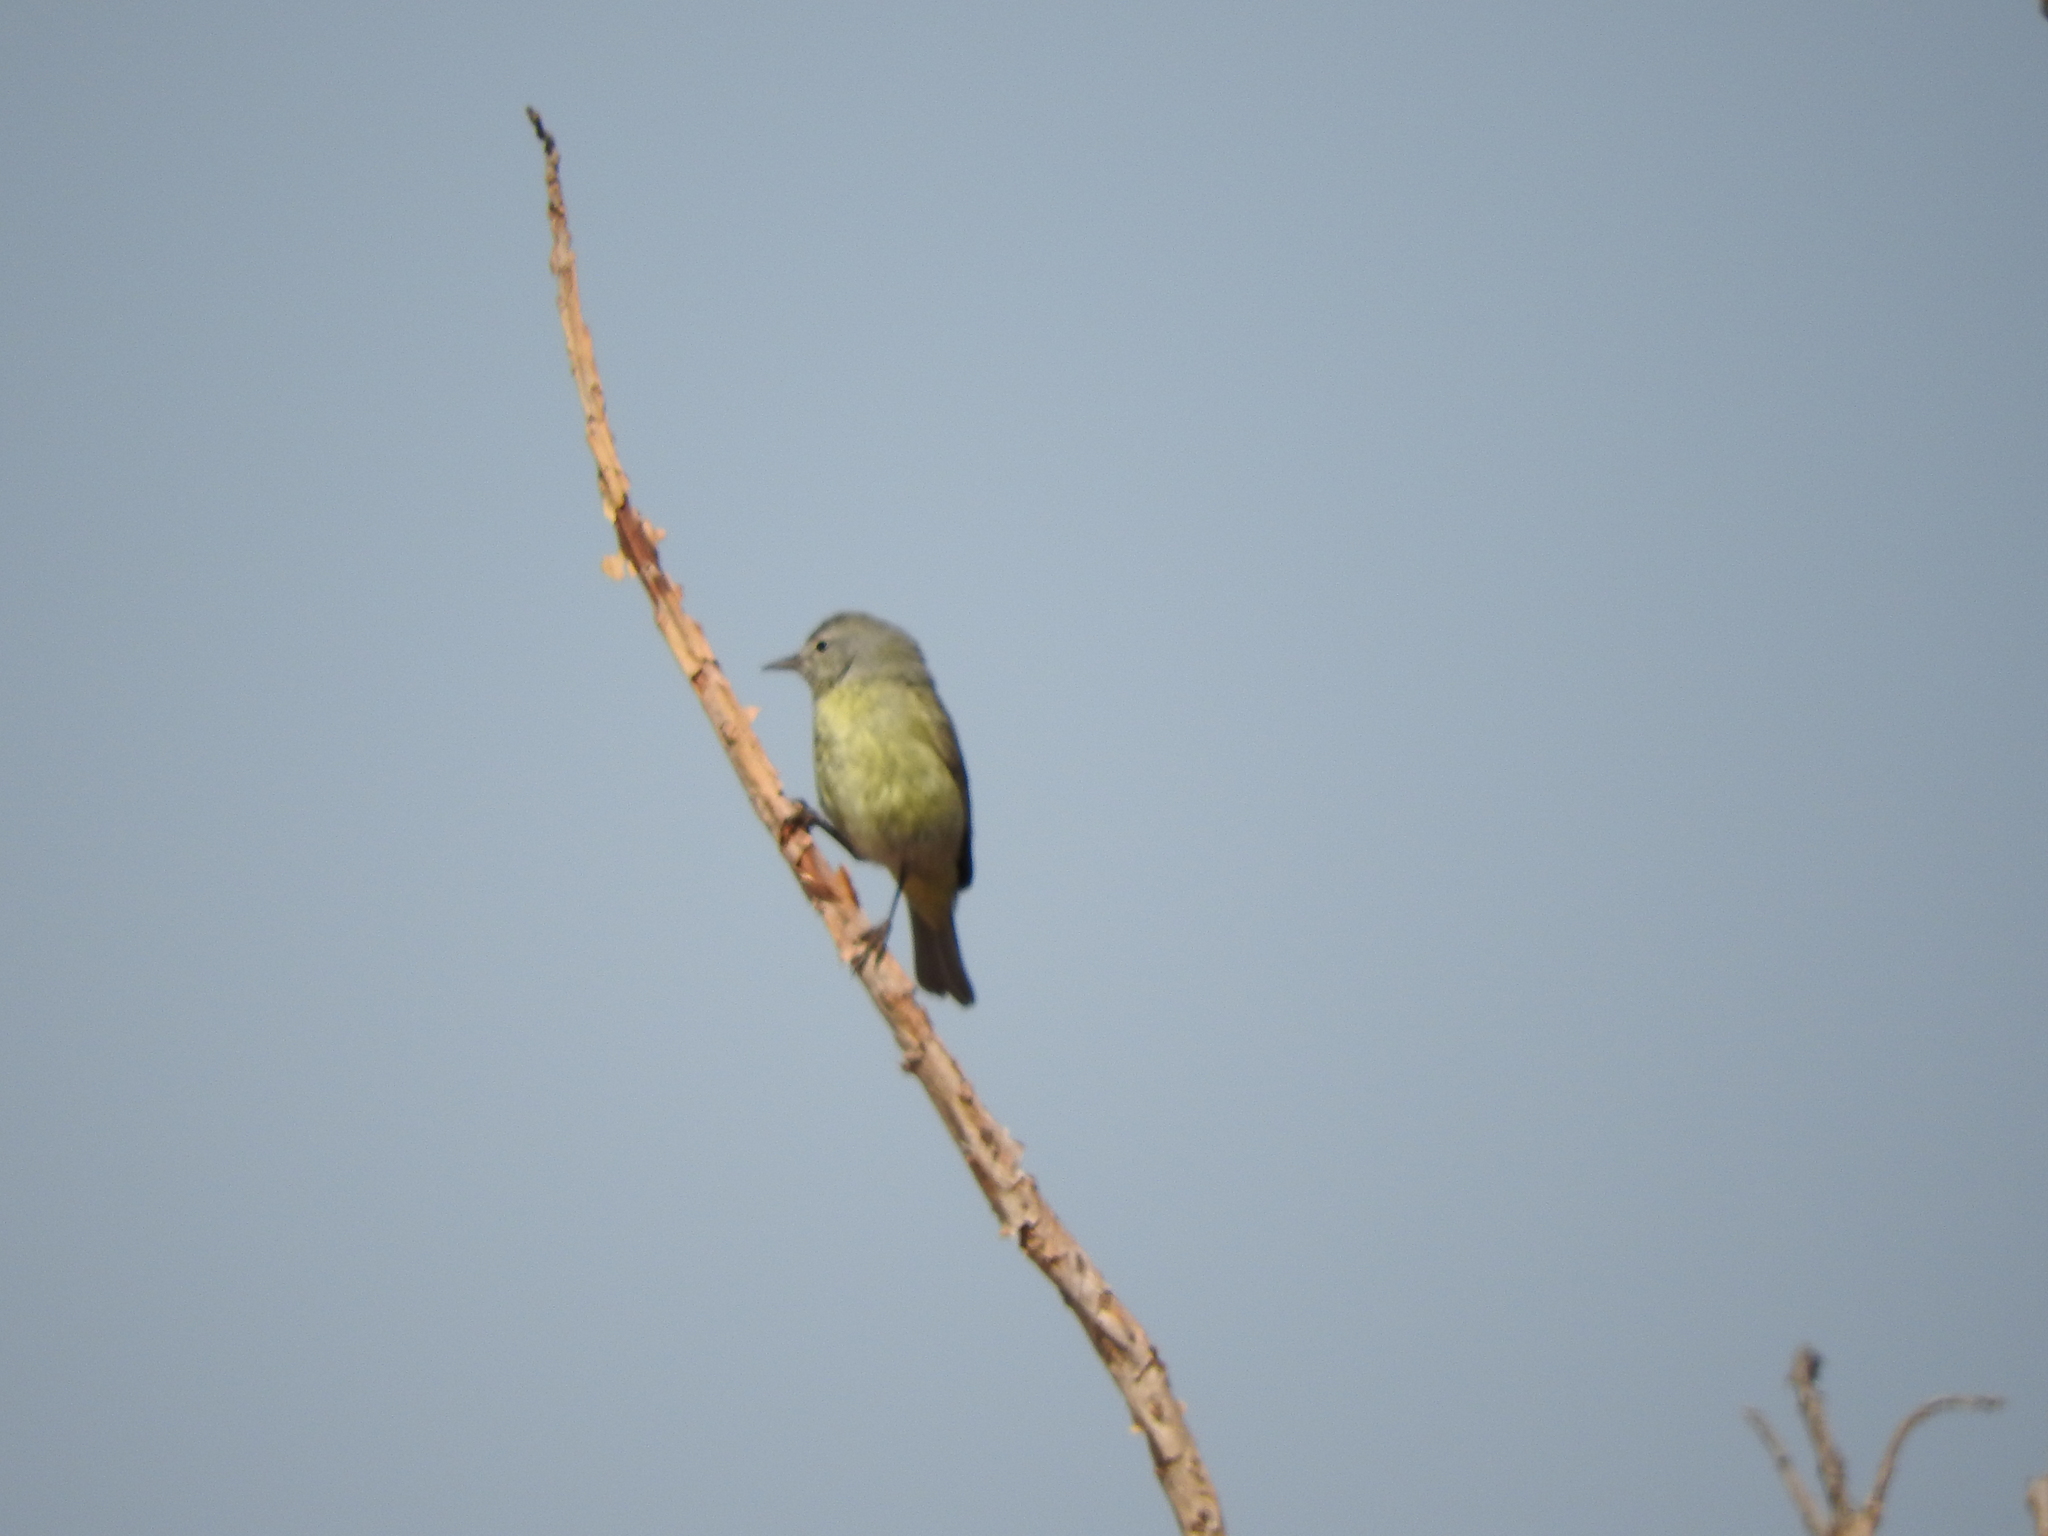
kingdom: Animalia
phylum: Chordata
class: Aves
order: Passeriformes
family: Parulidae
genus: Leiothlypis
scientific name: Leiothlypis celata
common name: Orange-crowned warbler
